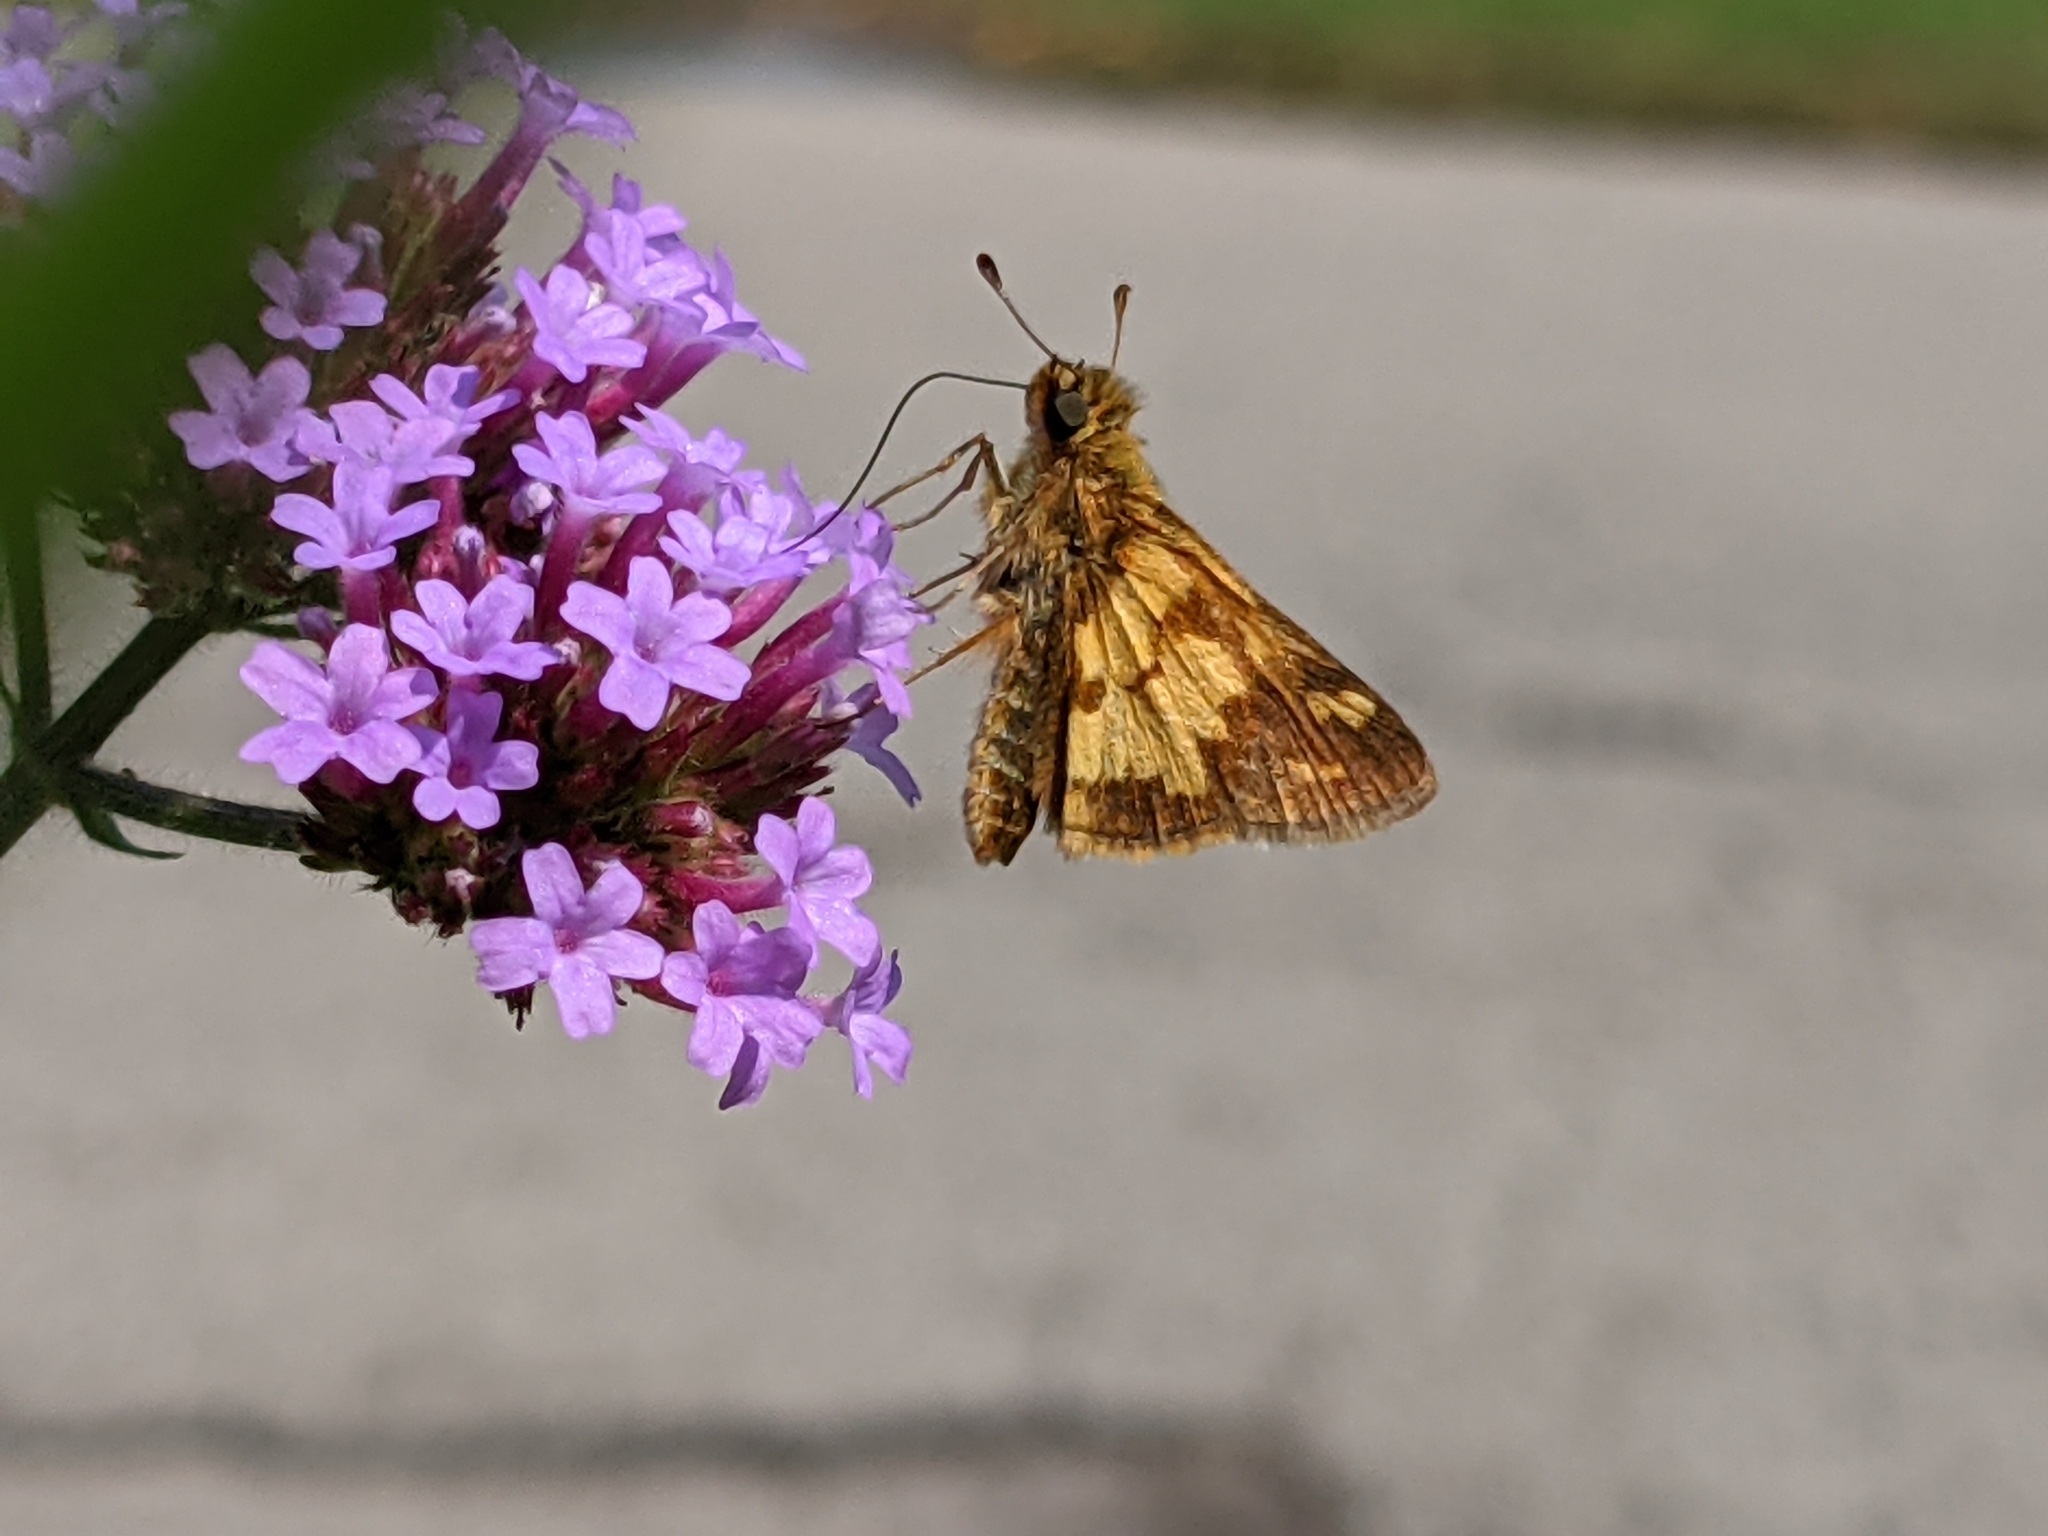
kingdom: Animalia
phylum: Arthropoda
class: Insecta
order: Lepidoptera
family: Hesperiidae
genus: Polites
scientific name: Polites coras
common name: Peck's skipper
